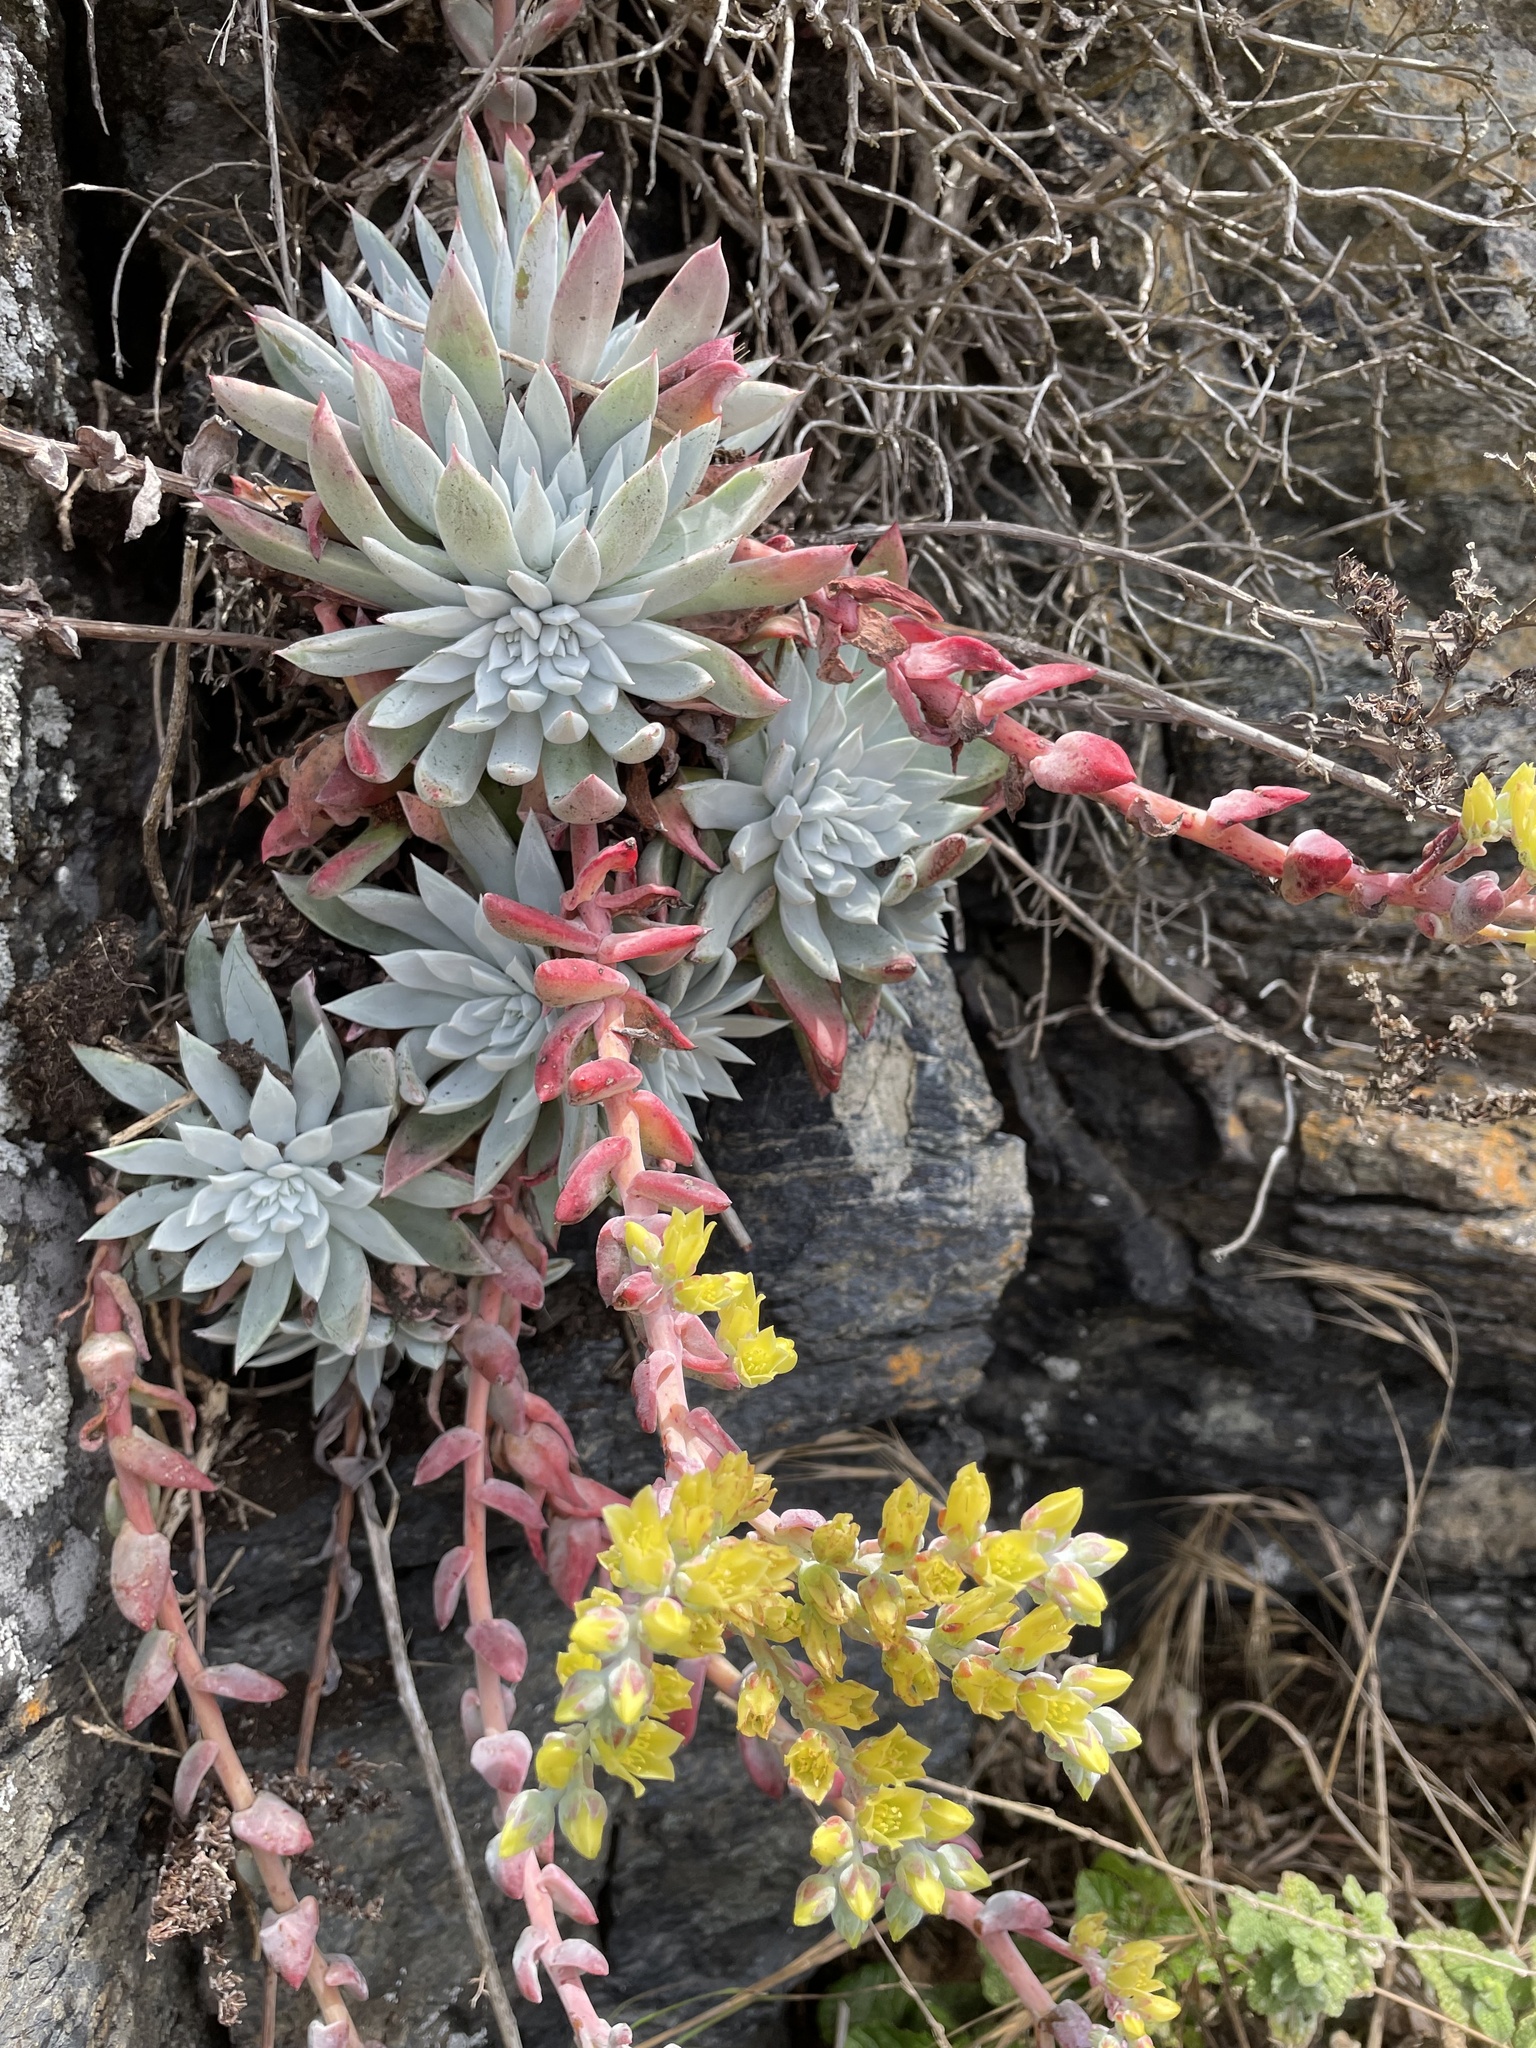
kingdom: Plantae
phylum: Tracheophyta
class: Magnoliopsida
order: Saxifragales
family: Crassulaceae
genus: Dudleya
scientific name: Dudleya farinosa
